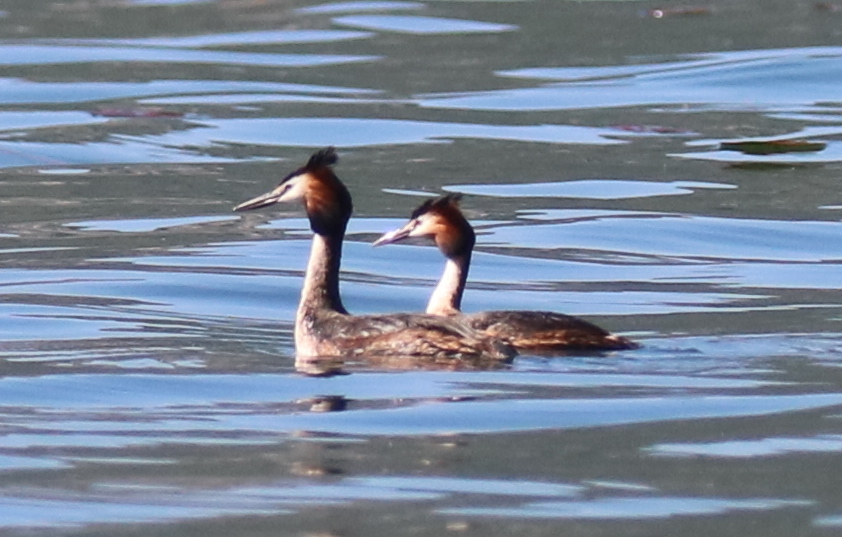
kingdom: Animalia
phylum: Chordata
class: Aves
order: Podicipediformes
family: Podicipedidae
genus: Podiceps
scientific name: Podiceps cristatus
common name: Great crested grebe
